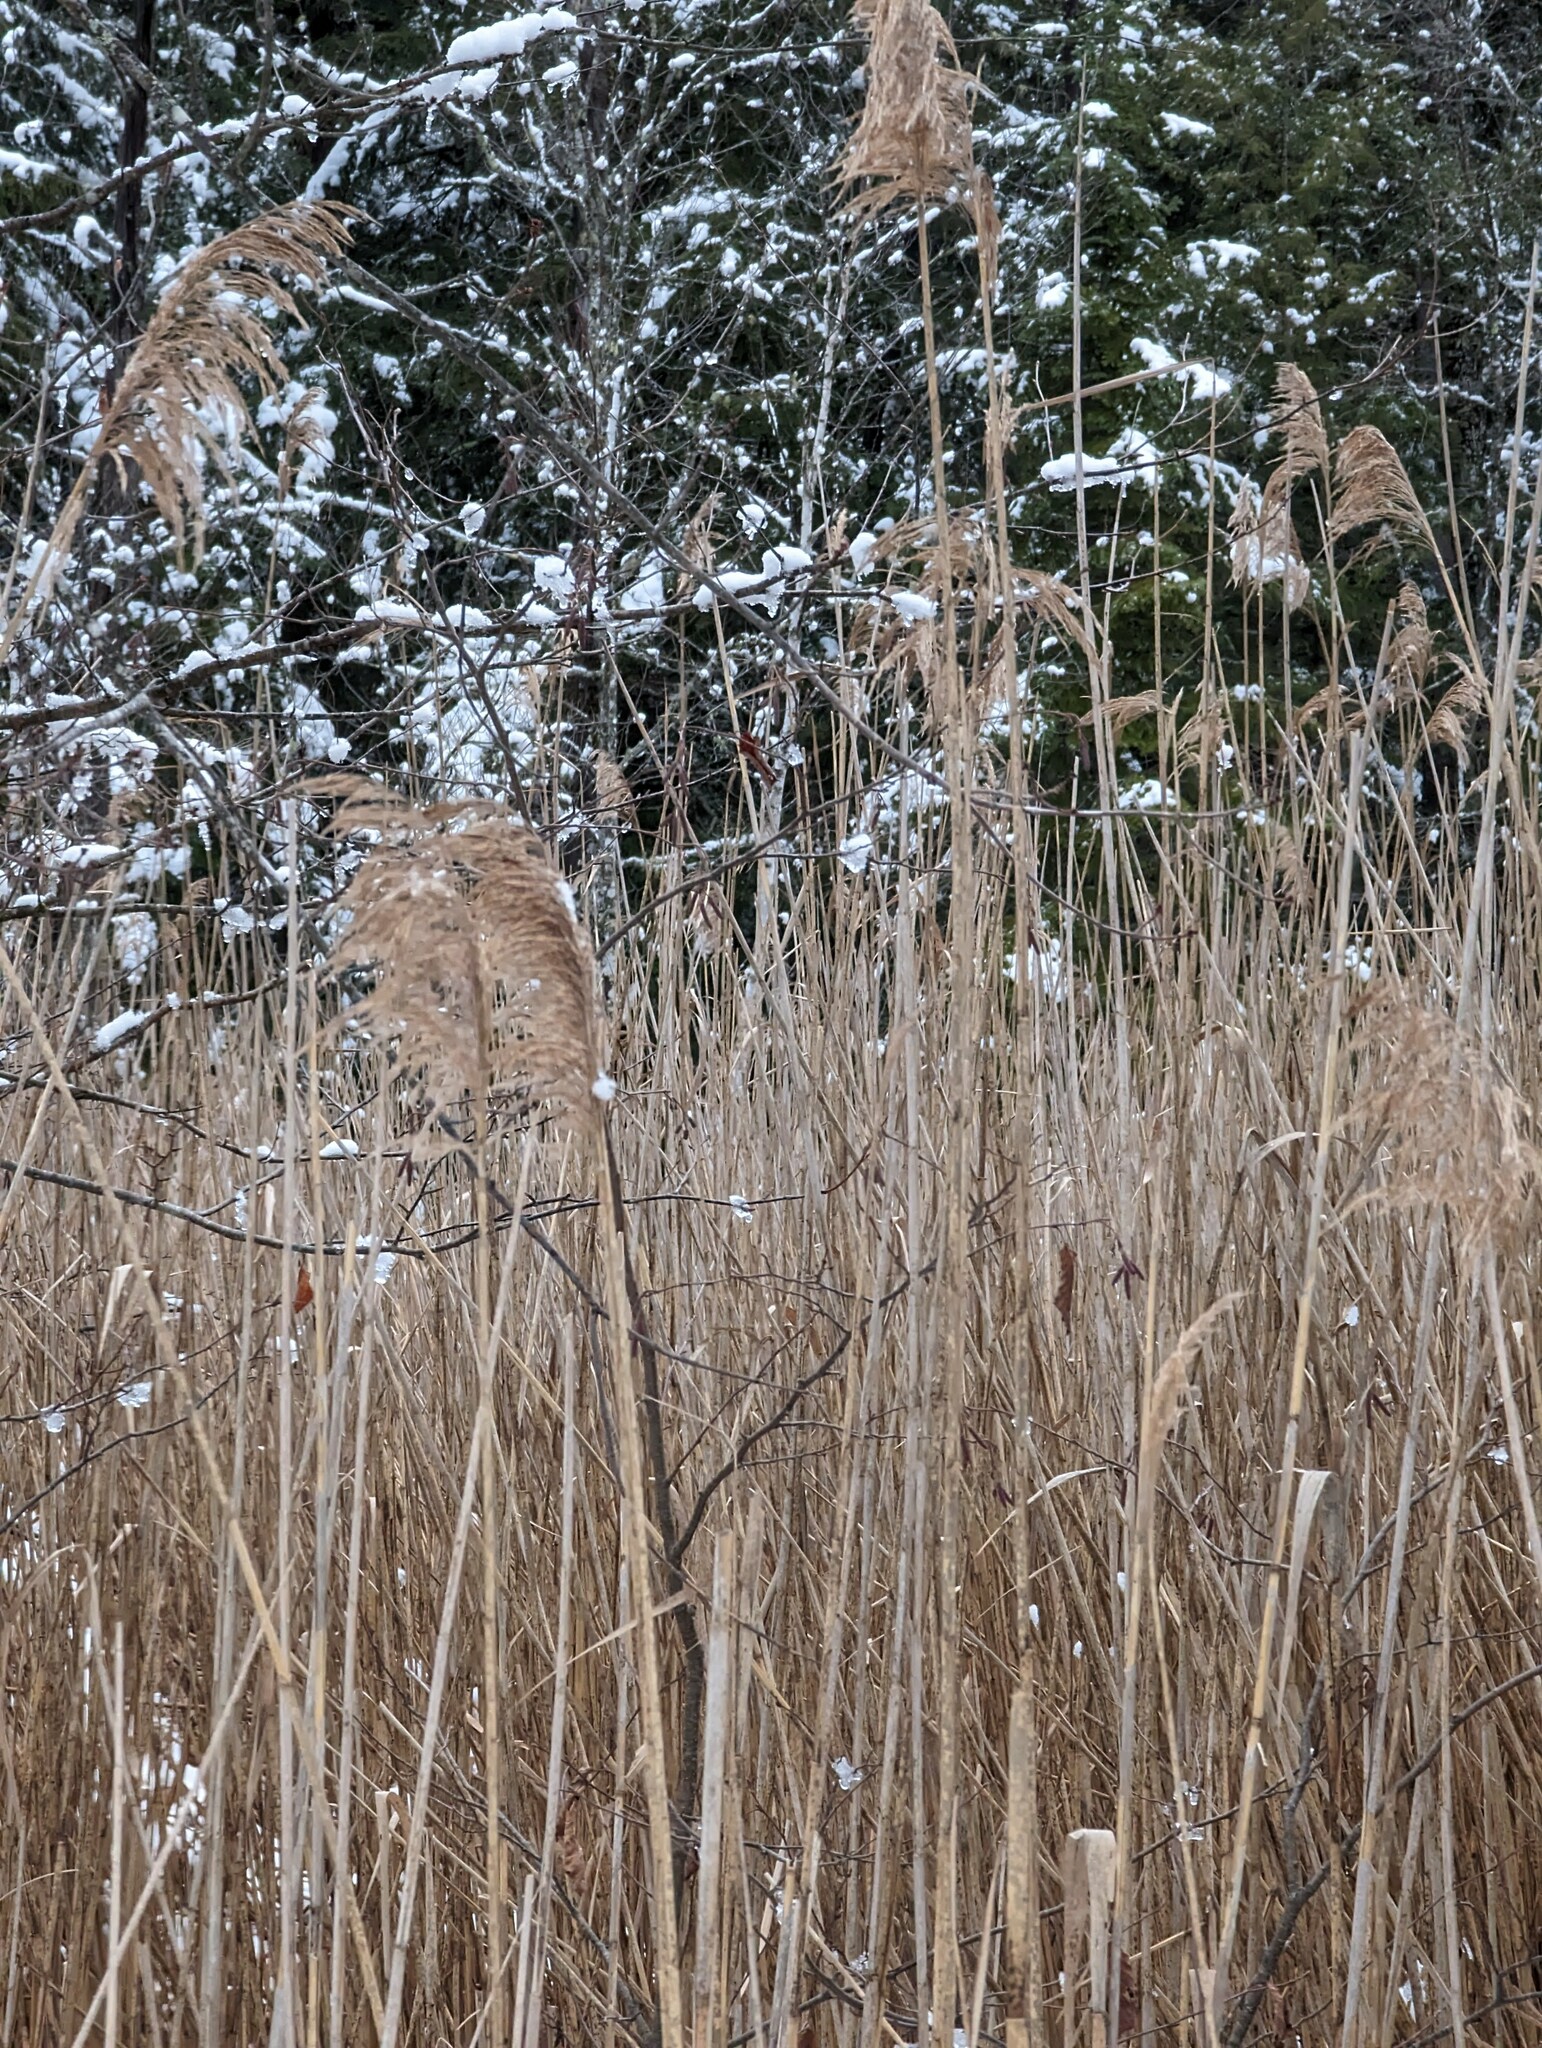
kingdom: Plantae
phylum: Tracheophyta
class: Liliopsida
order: Poales
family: Poaceae
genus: Phragmites
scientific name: Phragmites australis
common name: Common reed
